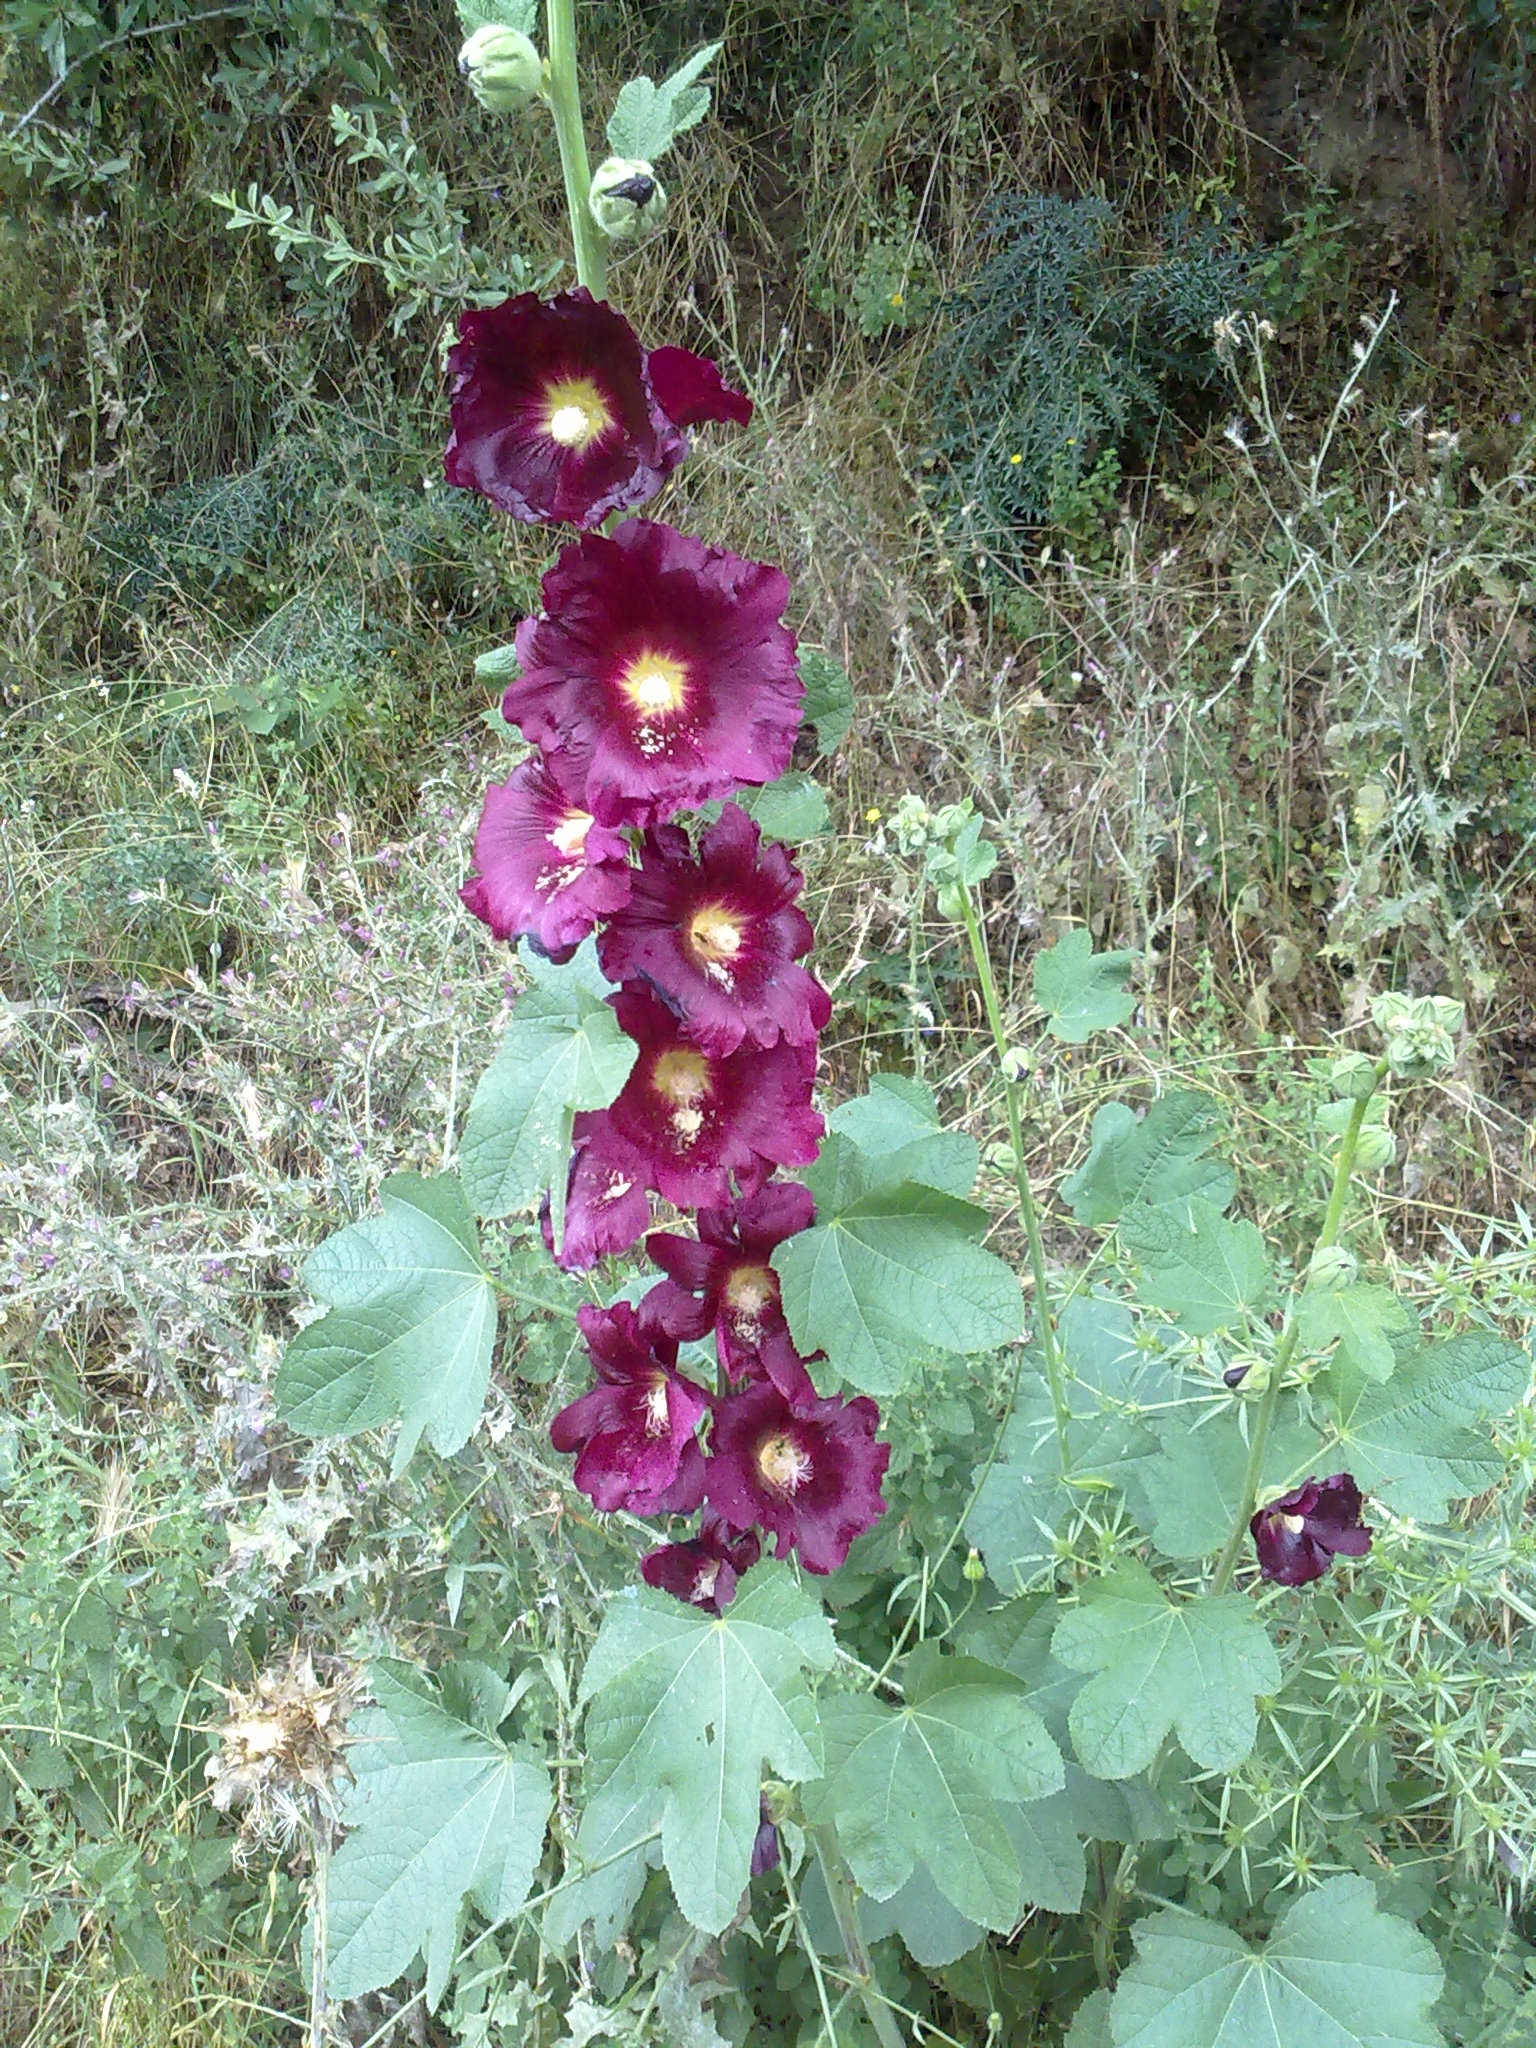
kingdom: Plantae
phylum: Tracheophyta
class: Magnoliopsida
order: Malvales
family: Malvaceae
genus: Alcea
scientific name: Alcea rosea
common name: Hollyhock
